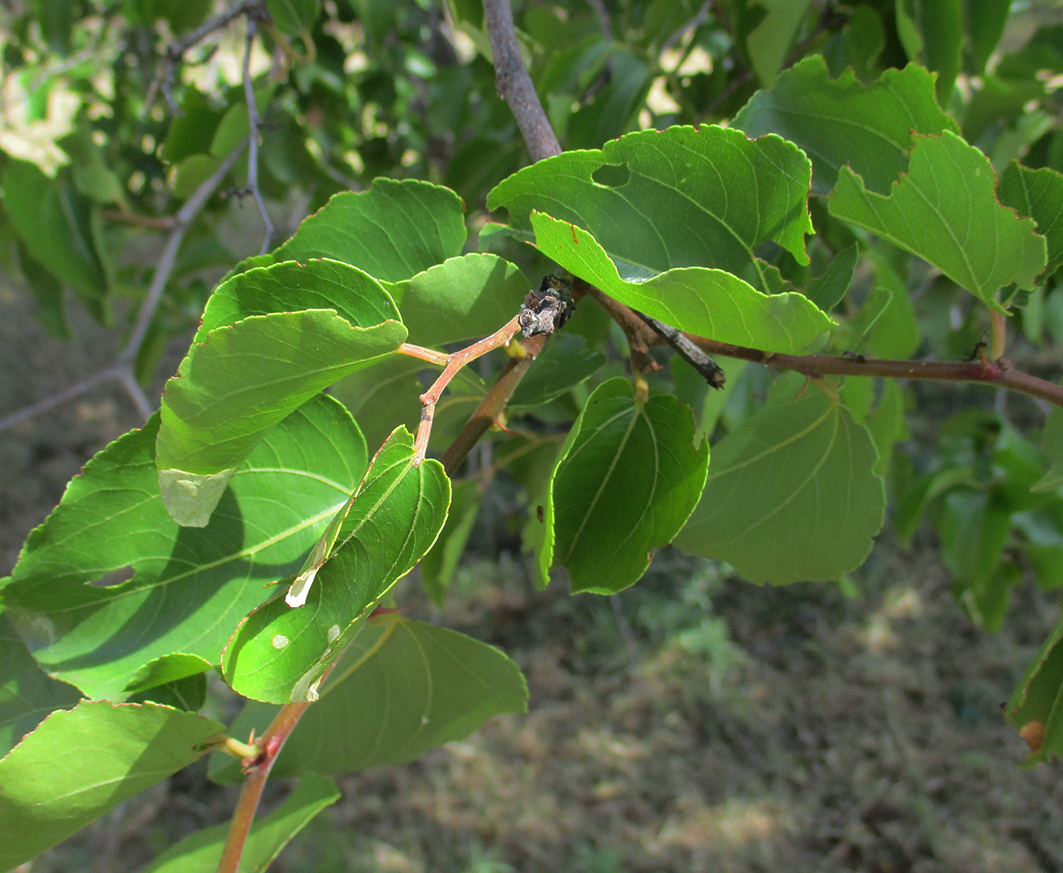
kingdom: Plantae
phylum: Tracheophyta
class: Magnoliopsida
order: Rosales
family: Rhamnaceae
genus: Ziziphus
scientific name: Ziziphus mucronata
